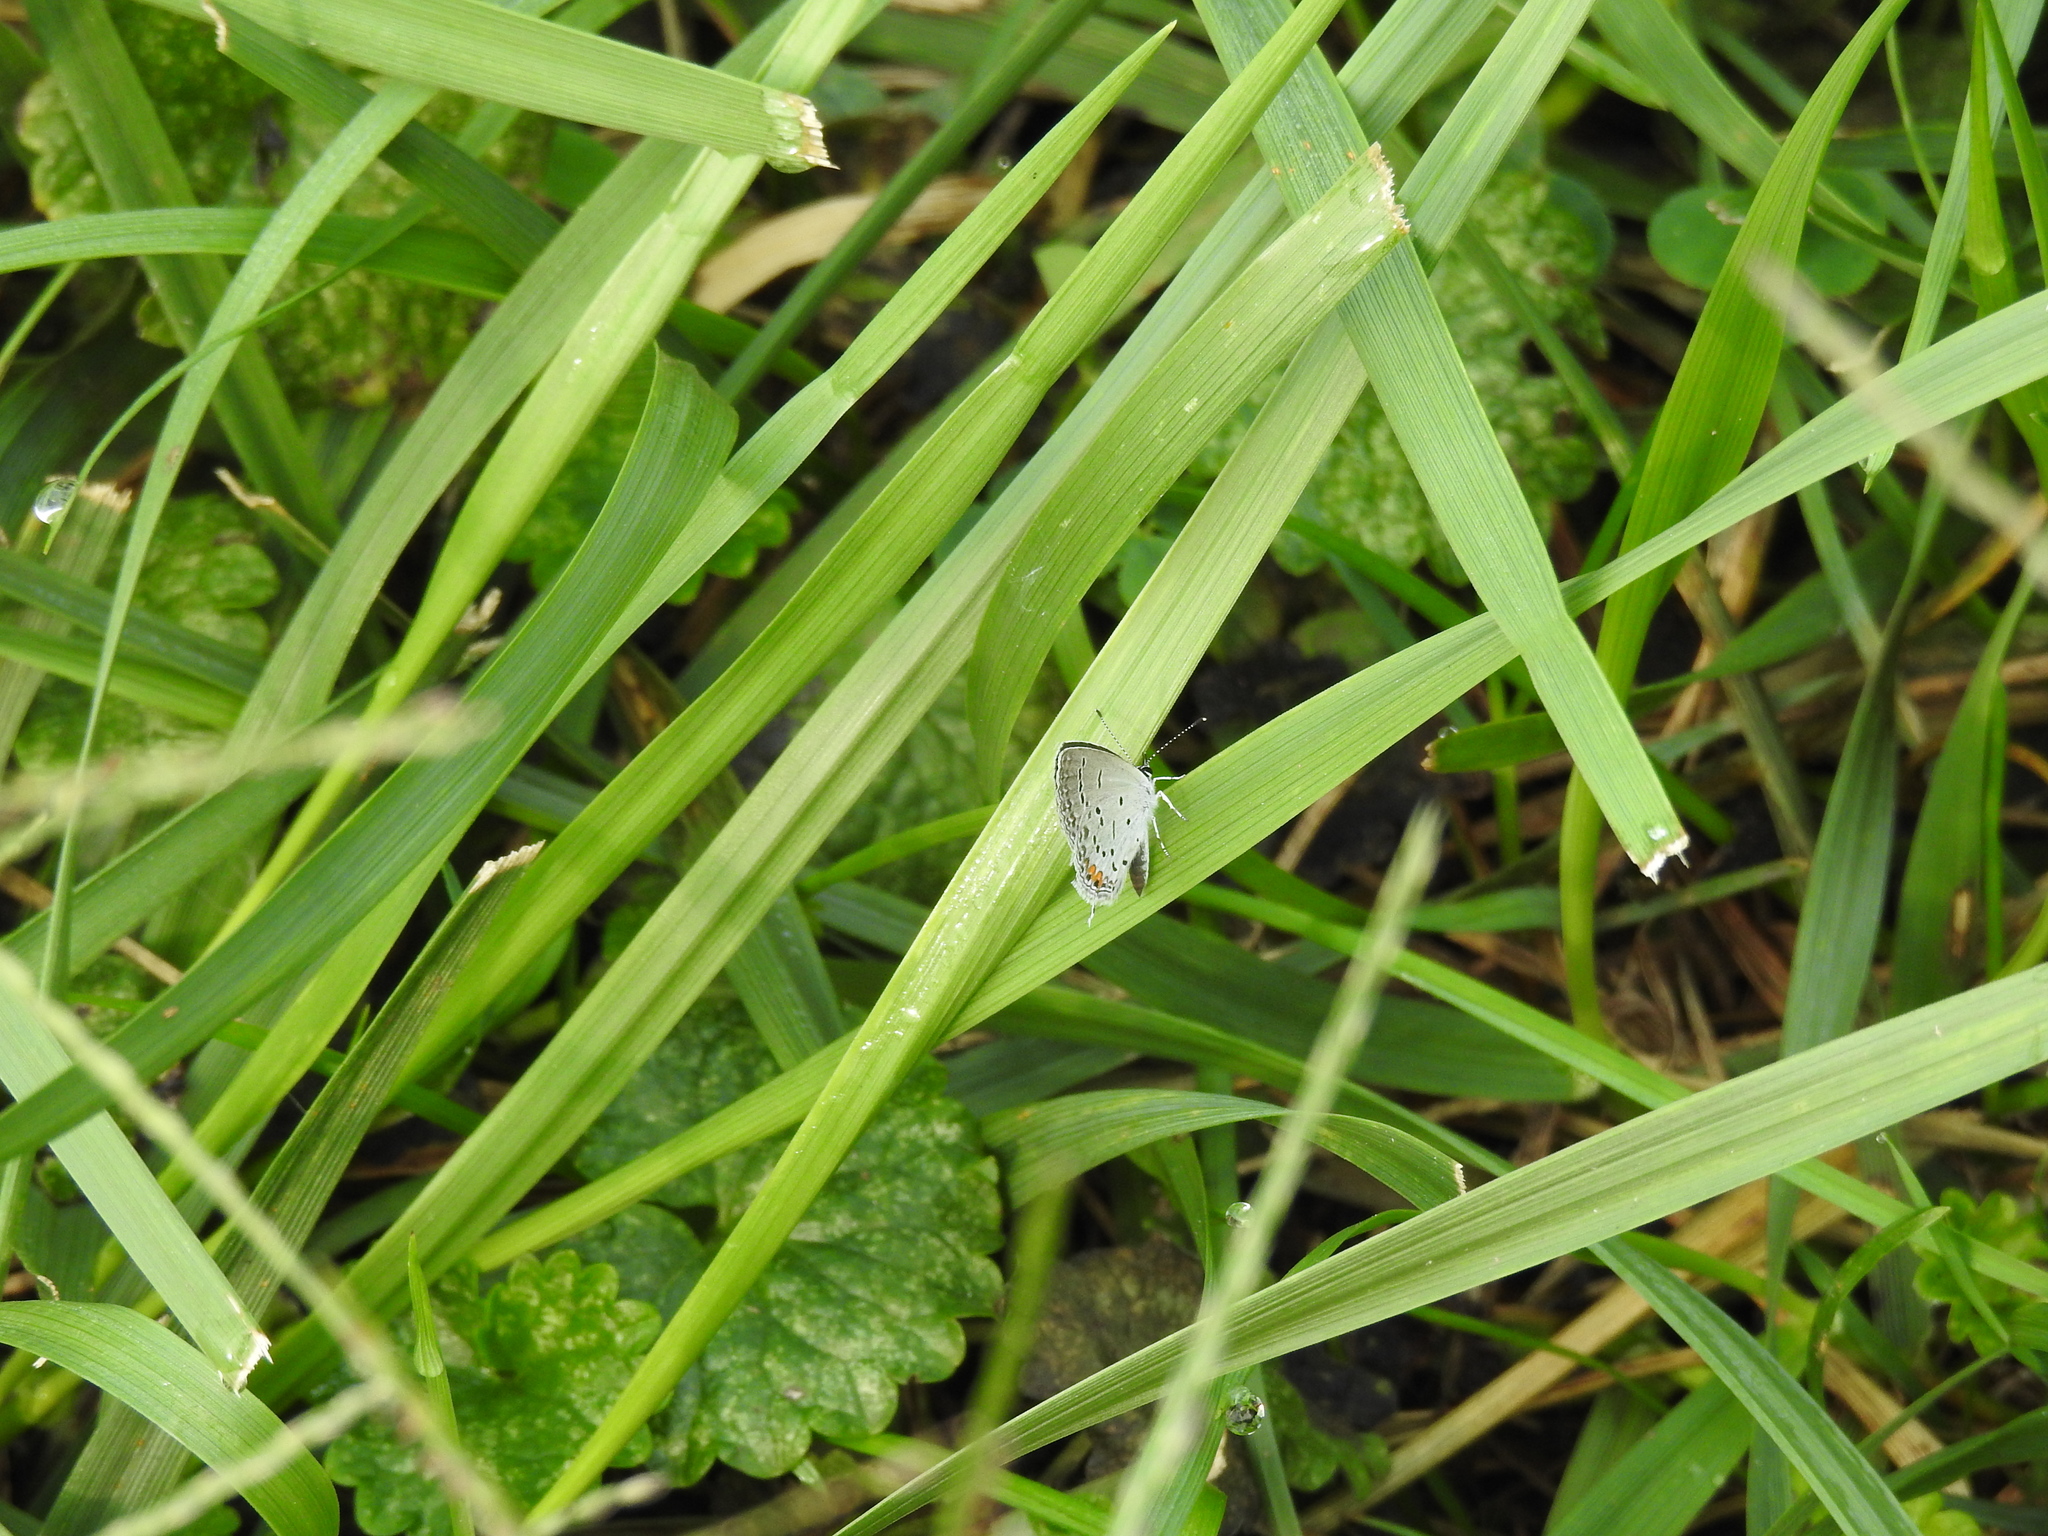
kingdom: Animalia
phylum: Arthropoda
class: Insecta
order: Lepidoptera
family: Lycaenidae
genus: Elkalyce
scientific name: Elkalyce comyntas
